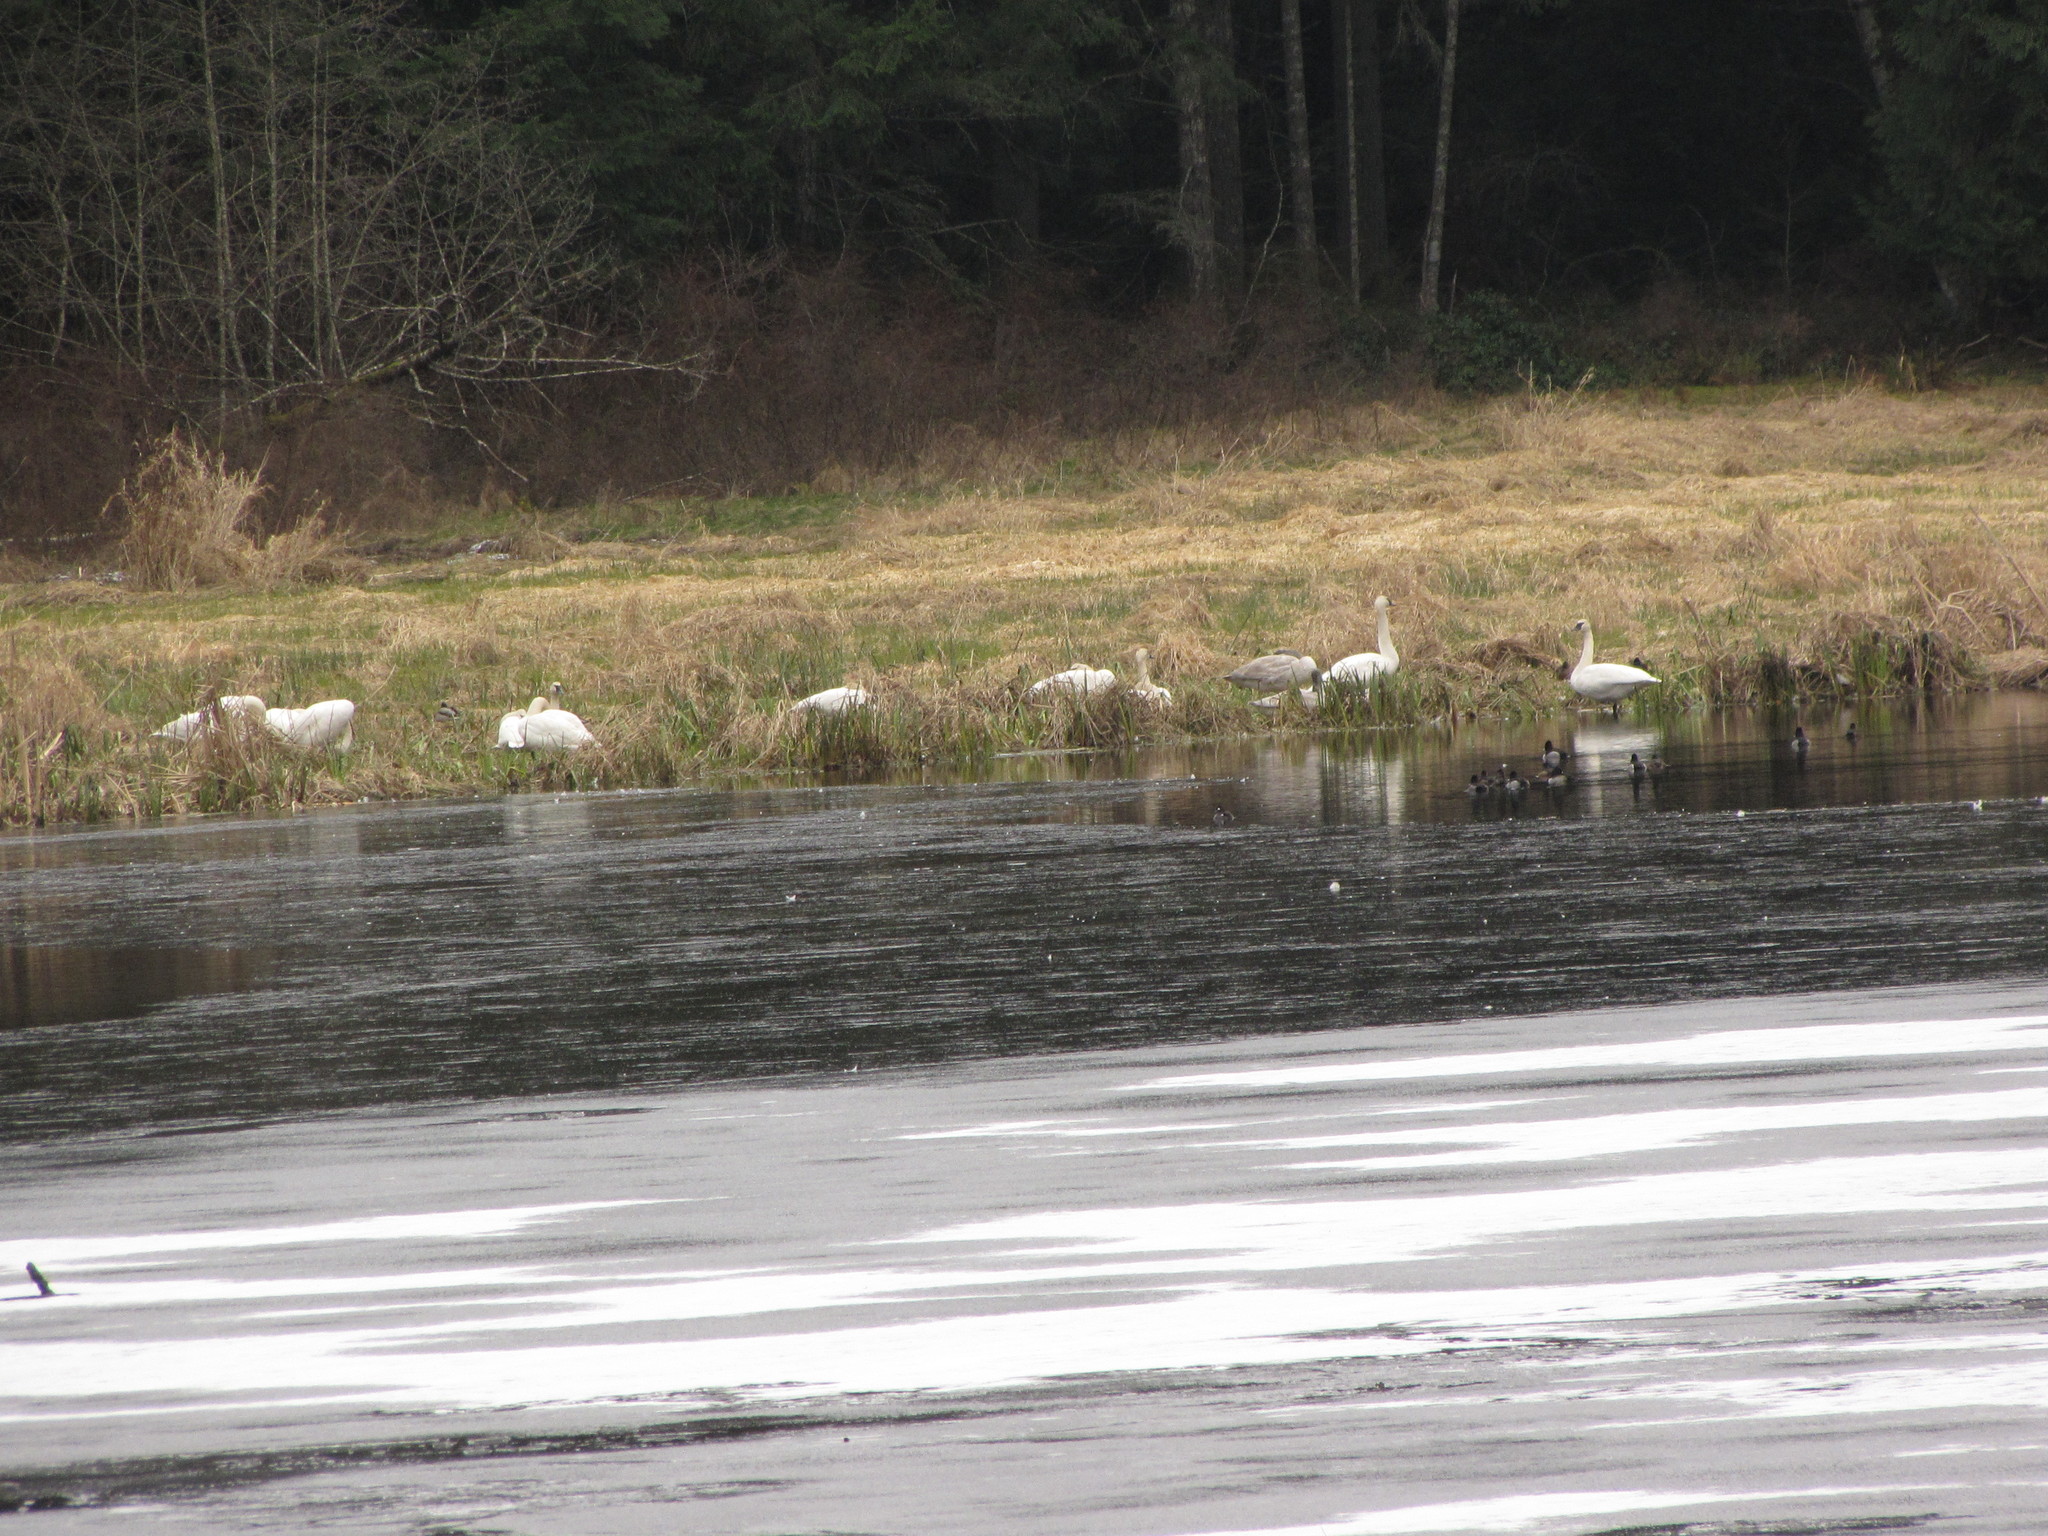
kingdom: Animalia
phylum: Chordata
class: Aves
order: Anseriformes
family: Anatidae
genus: Cygnus
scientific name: Cygnus buccinator
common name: Trumpeter swan
